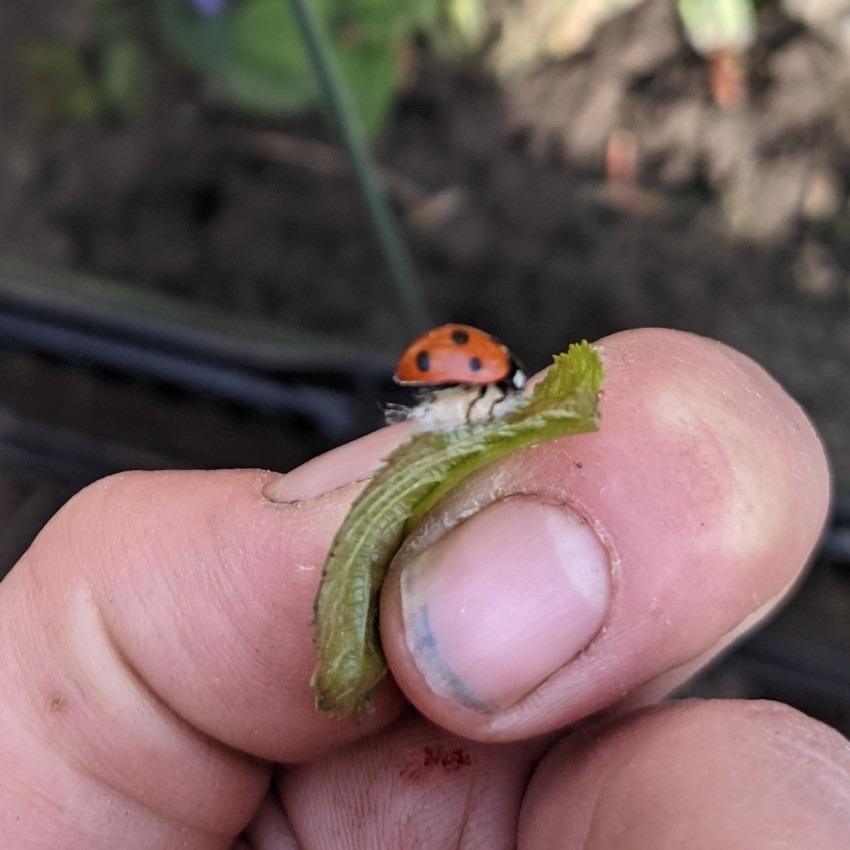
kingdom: Animalia
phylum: Arthropoda
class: Insecta
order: Hymenoptera
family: Braconidae
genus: Dinocampus
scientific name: Dinocampus coccinellae
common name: Braconid wasp
